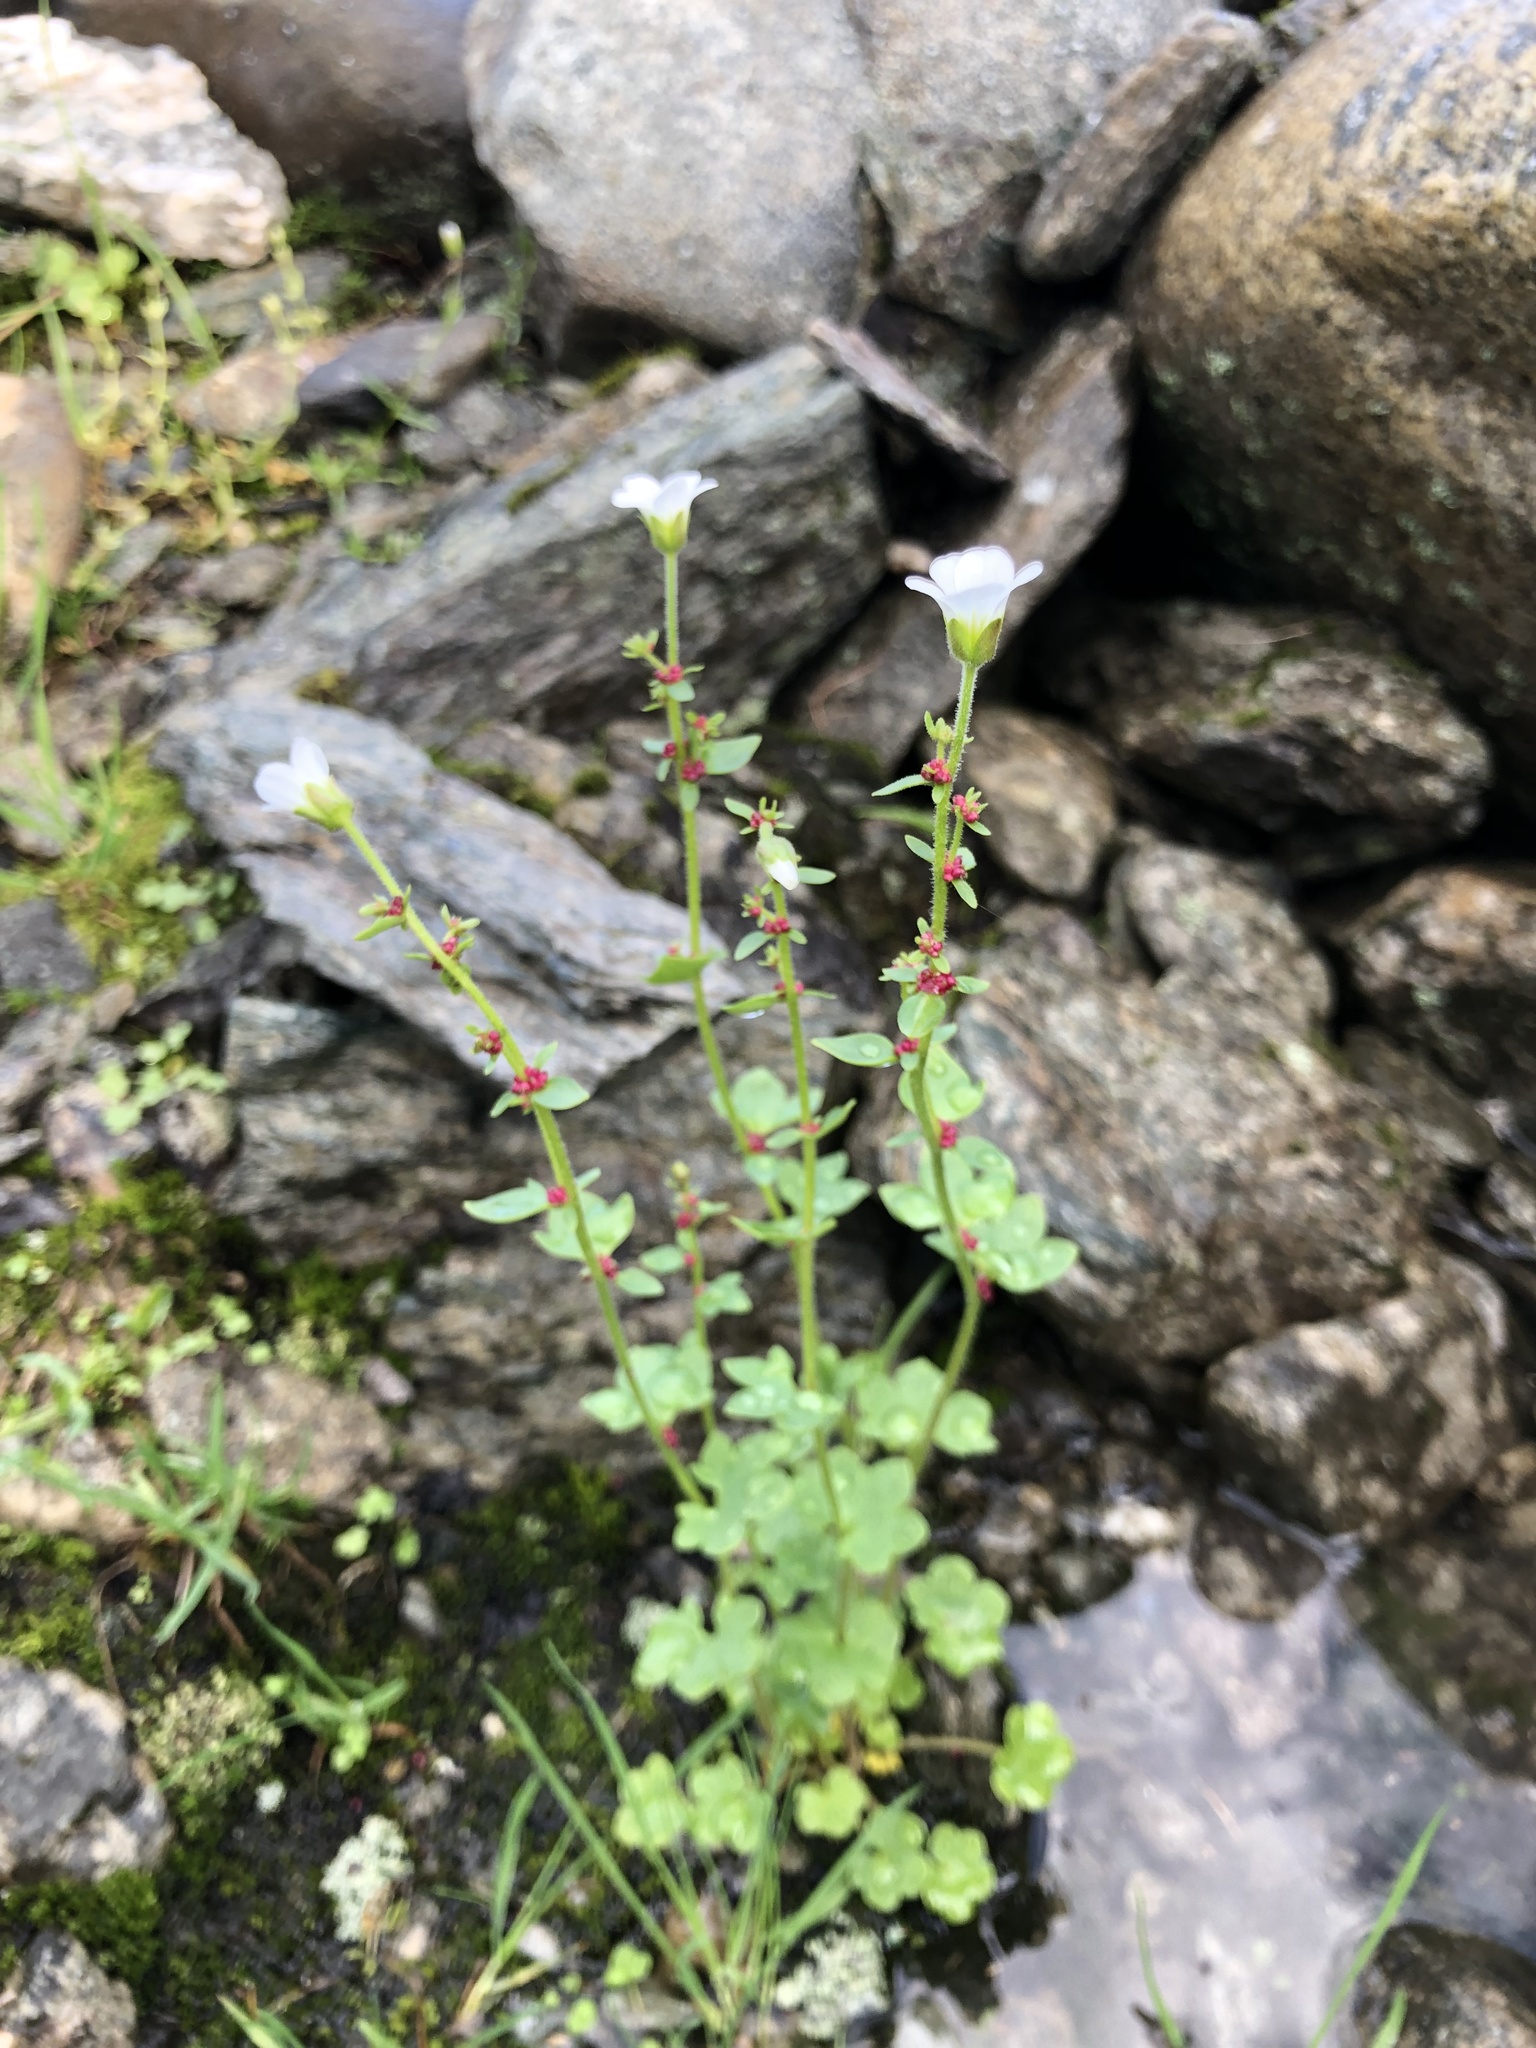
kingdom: Plantae
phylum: Tracheophyta
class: Magnoliopsida
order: Saxifragales
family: Saxifragaceae
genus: Saxifraga
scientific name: Saxifraga cernua
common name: Drooping saxifrage
